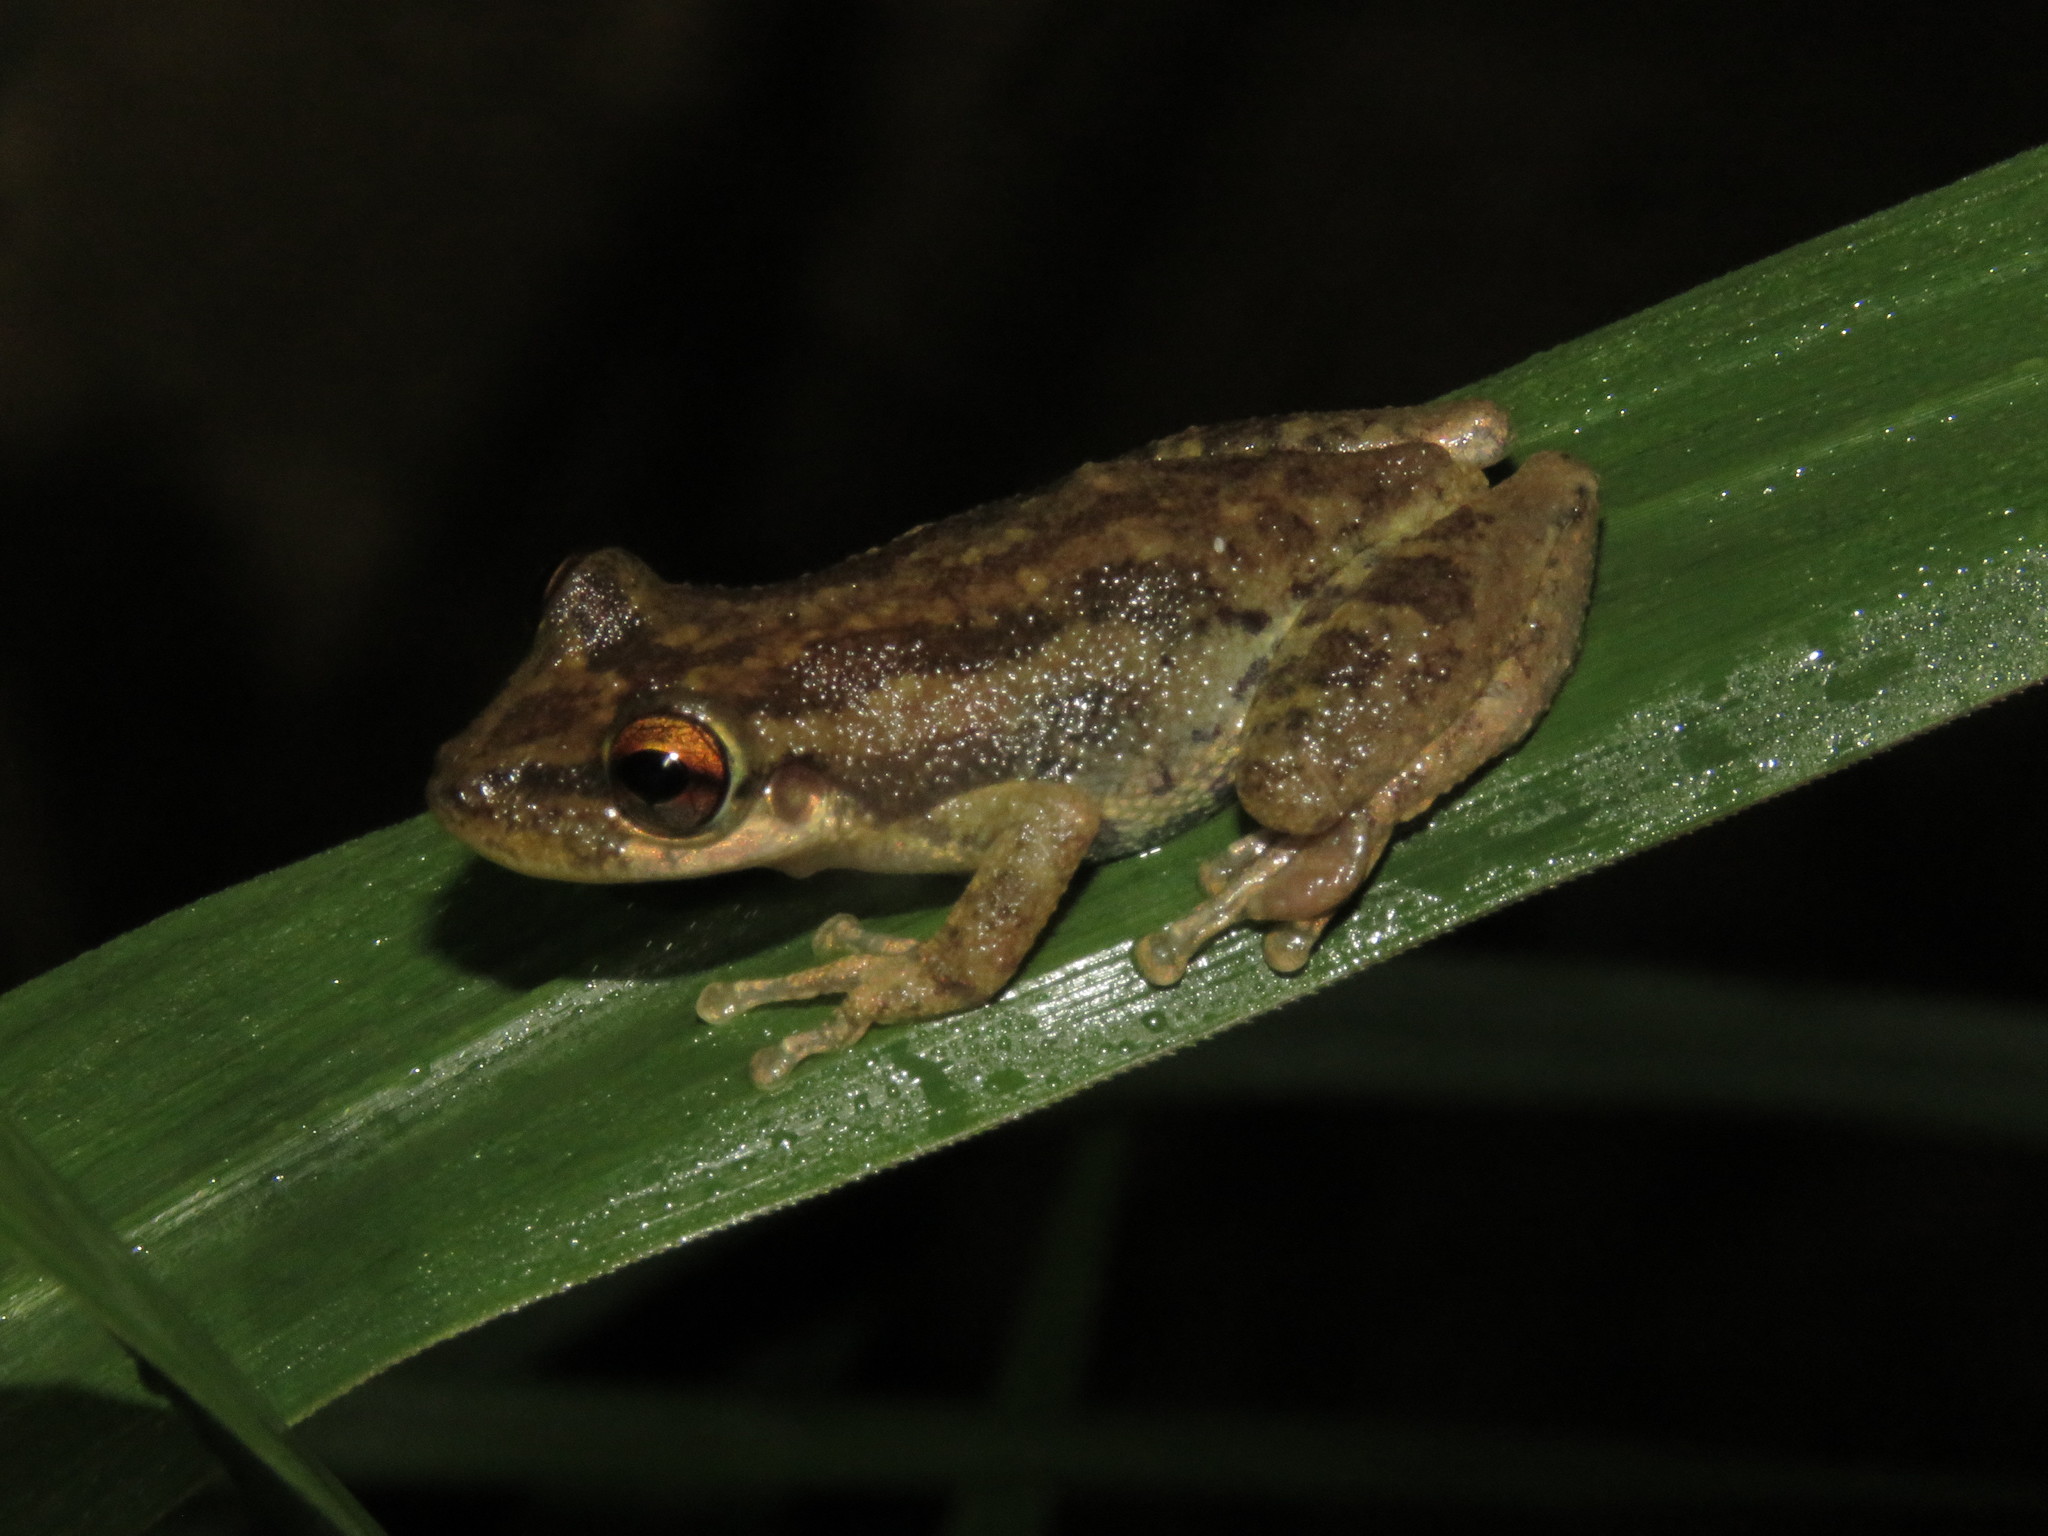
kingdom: Animalia
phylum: Chordata
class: Amphibia
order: Anura
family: Hylidae
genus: Scinax
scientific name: Scinax ruber
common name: Red snouted treefrog
